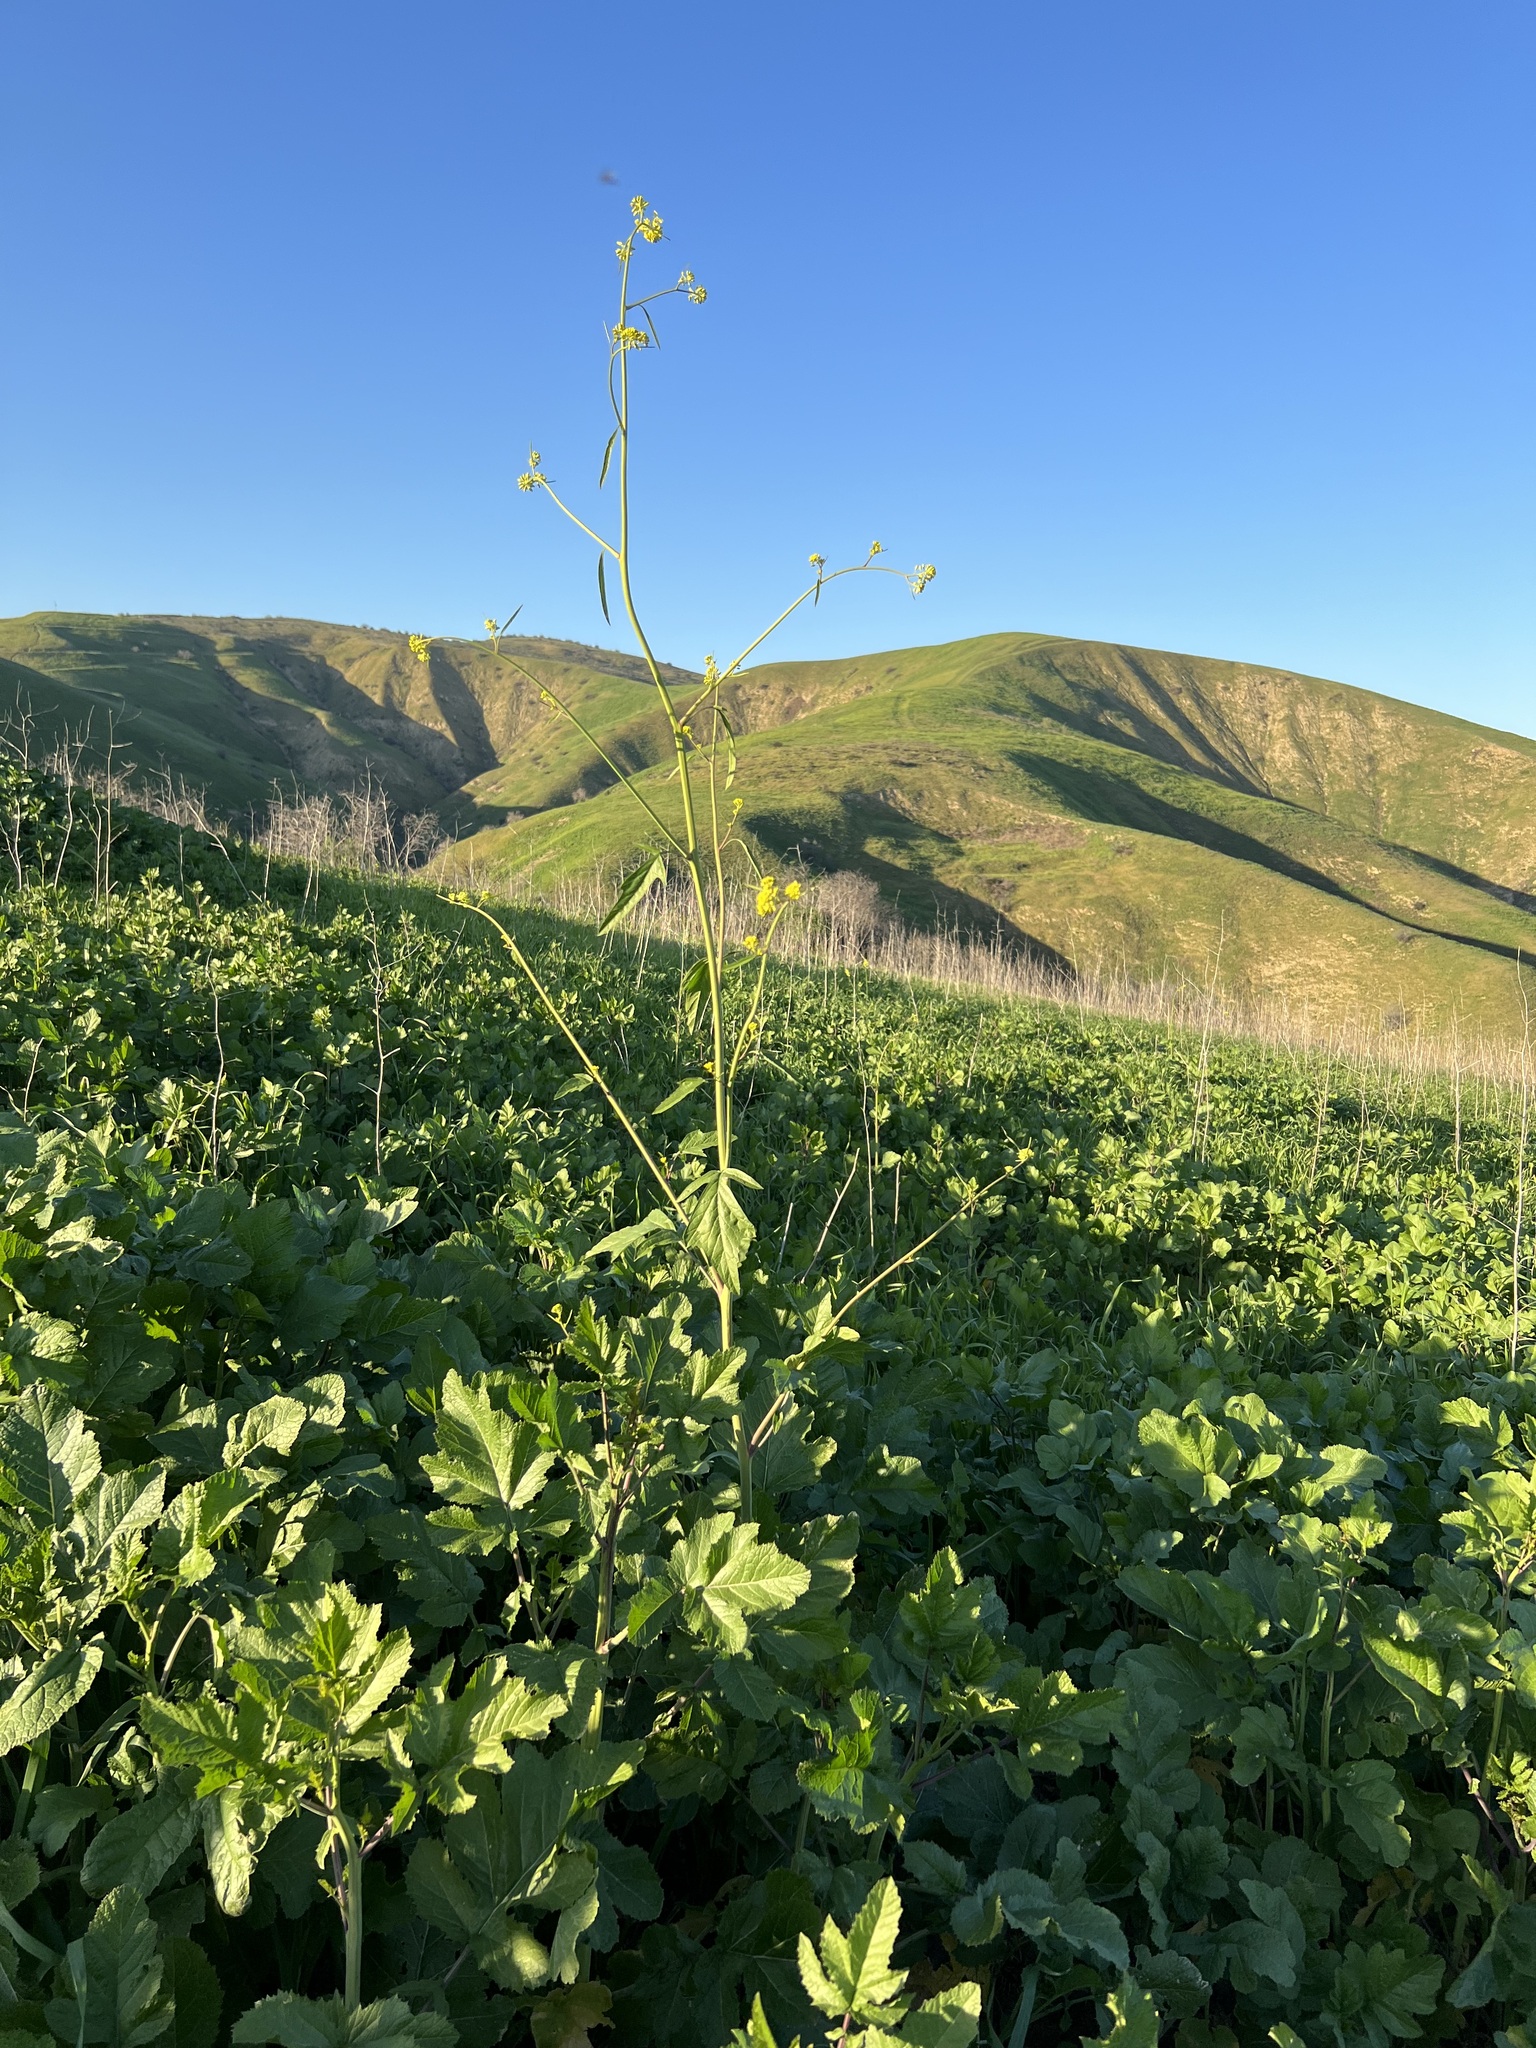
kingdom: Plantae
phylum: Tracheophyta
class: Magnoliopsida
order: Brassicales
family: Brassicaceae
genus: Brassica
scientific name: Brassica nigra
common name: Black mustard
